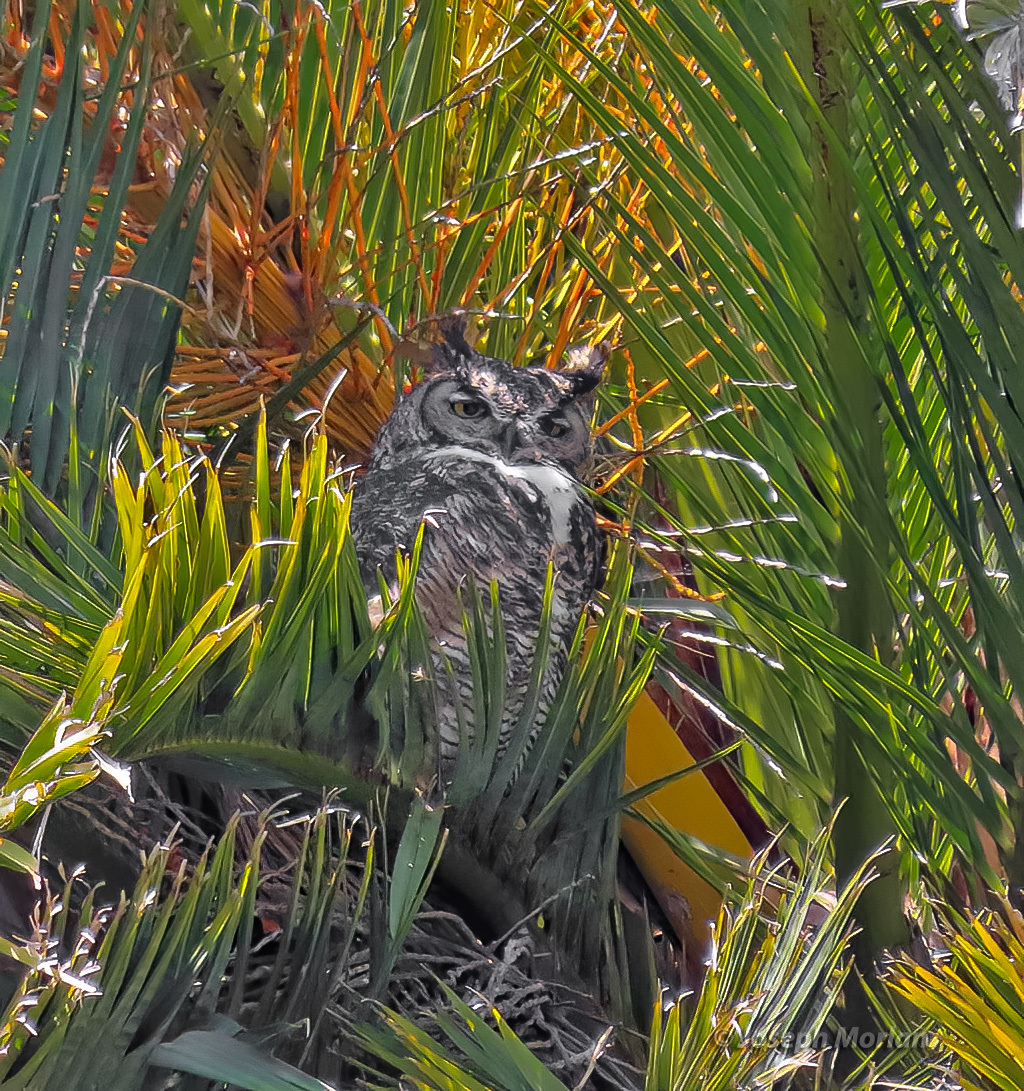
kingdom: Animalia
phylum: Chordata
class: Aves
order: Strigiformes
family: Strigidae
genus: Bubo
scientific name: Bubo virginianus
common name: Great horned owl
